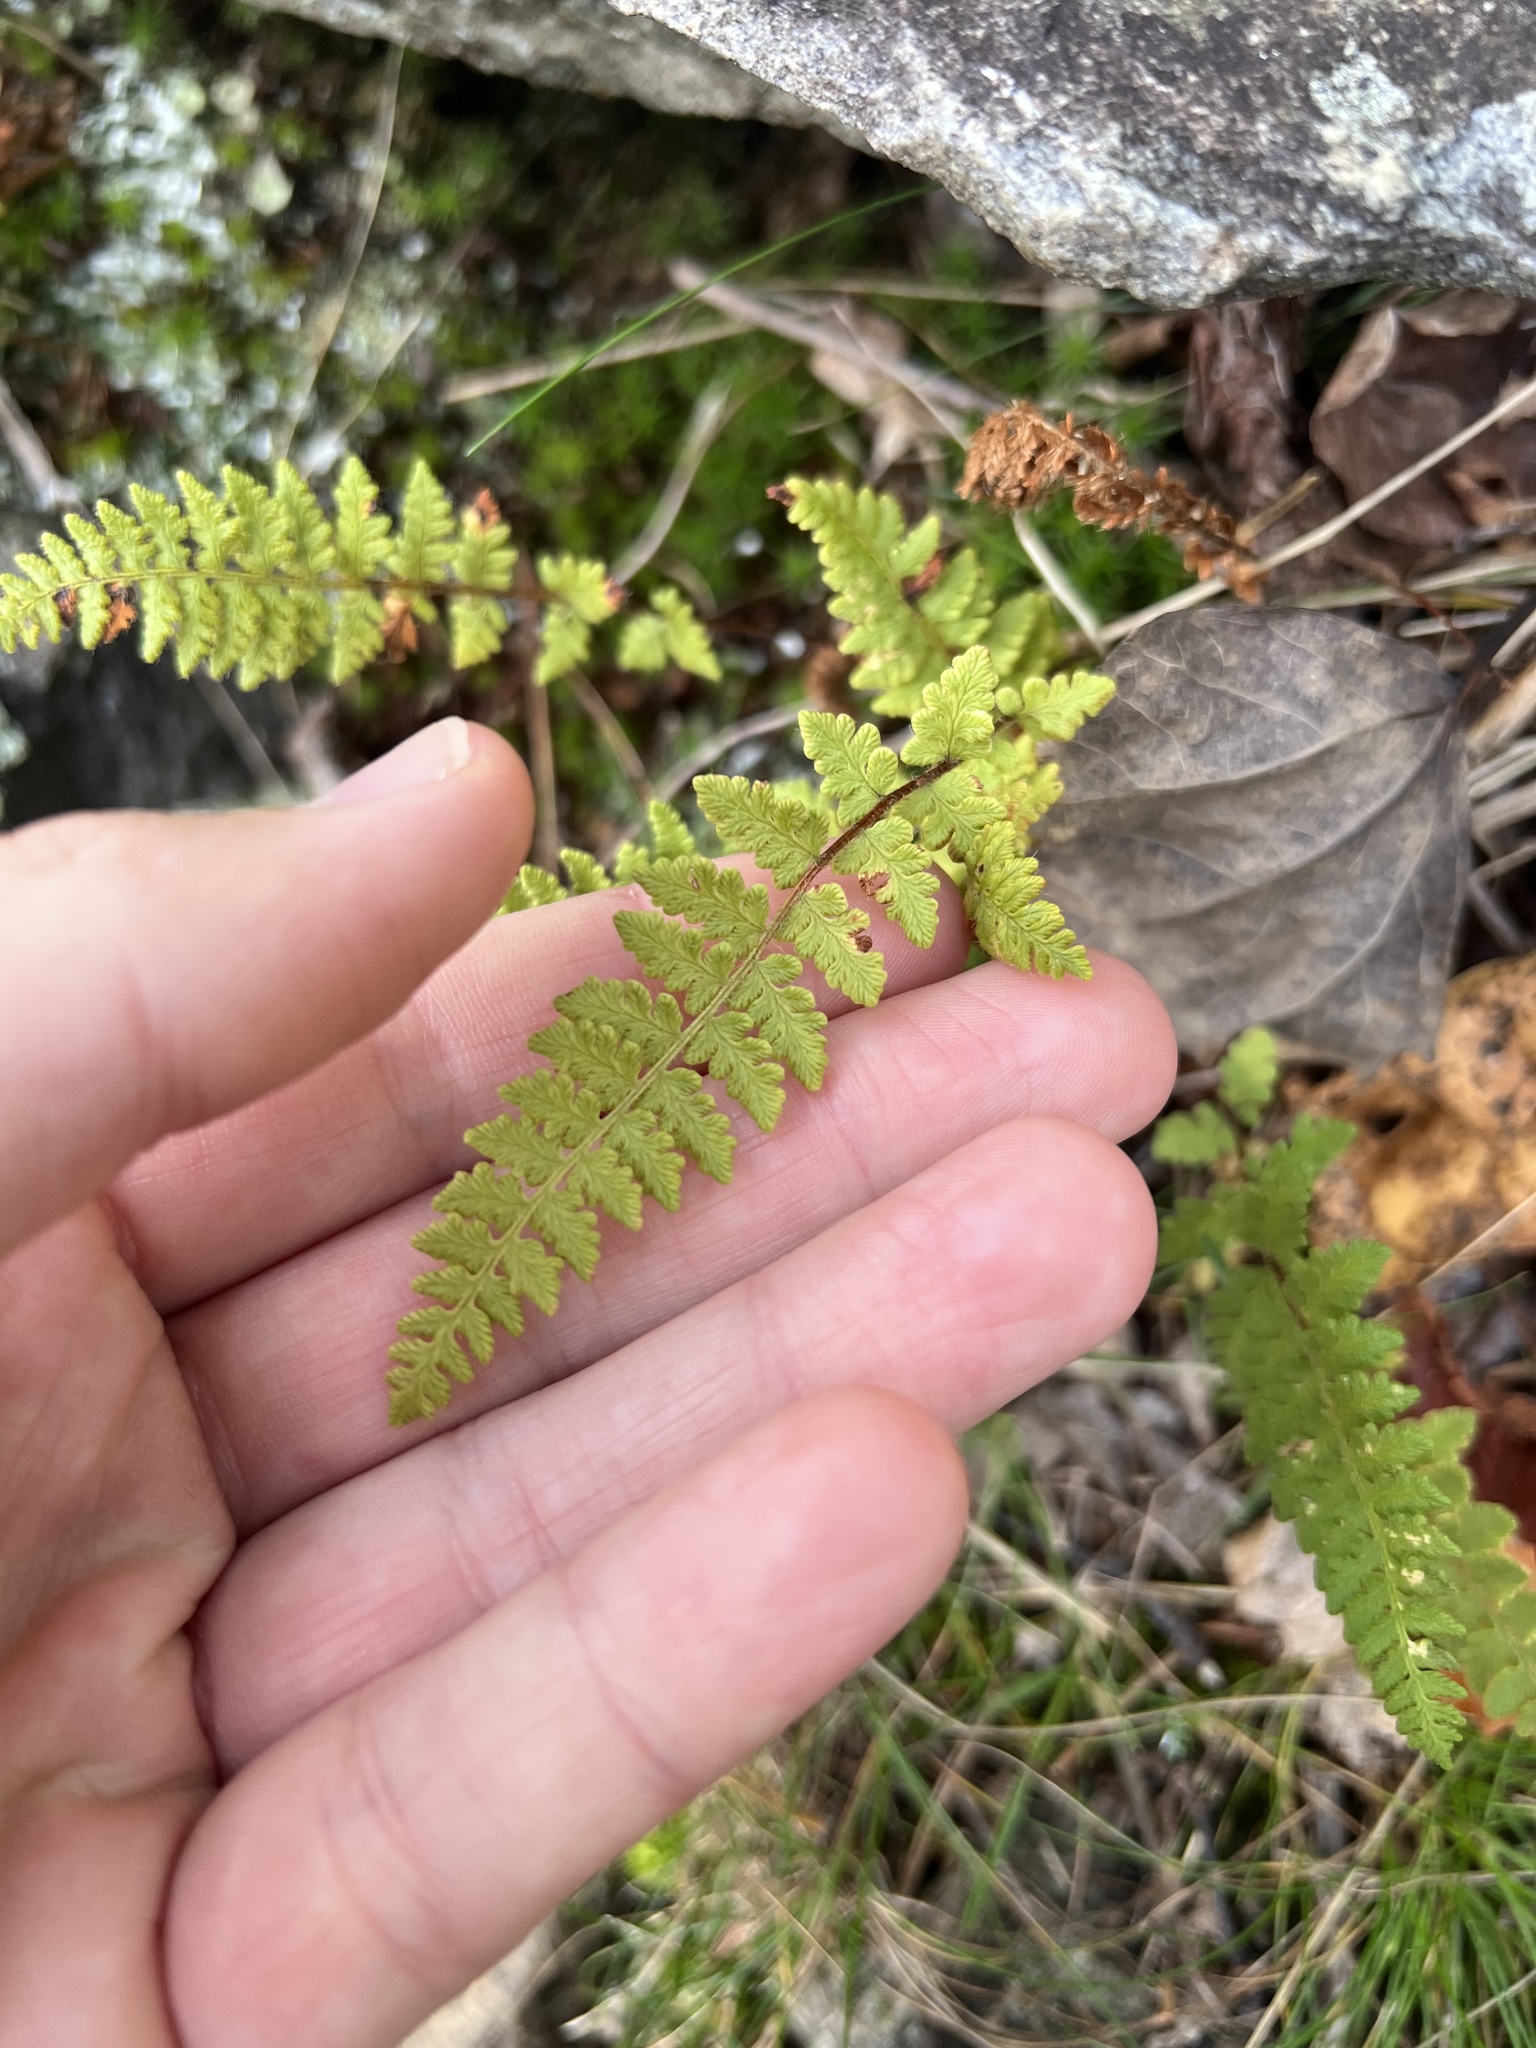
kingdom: Plantae
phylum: Tracheophyta
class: Polypodiopsida
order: Polypodiales
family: Woodsiaceae
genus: Woodsia
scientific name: Woodsia ilvensis
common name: Fragrant woodsia
